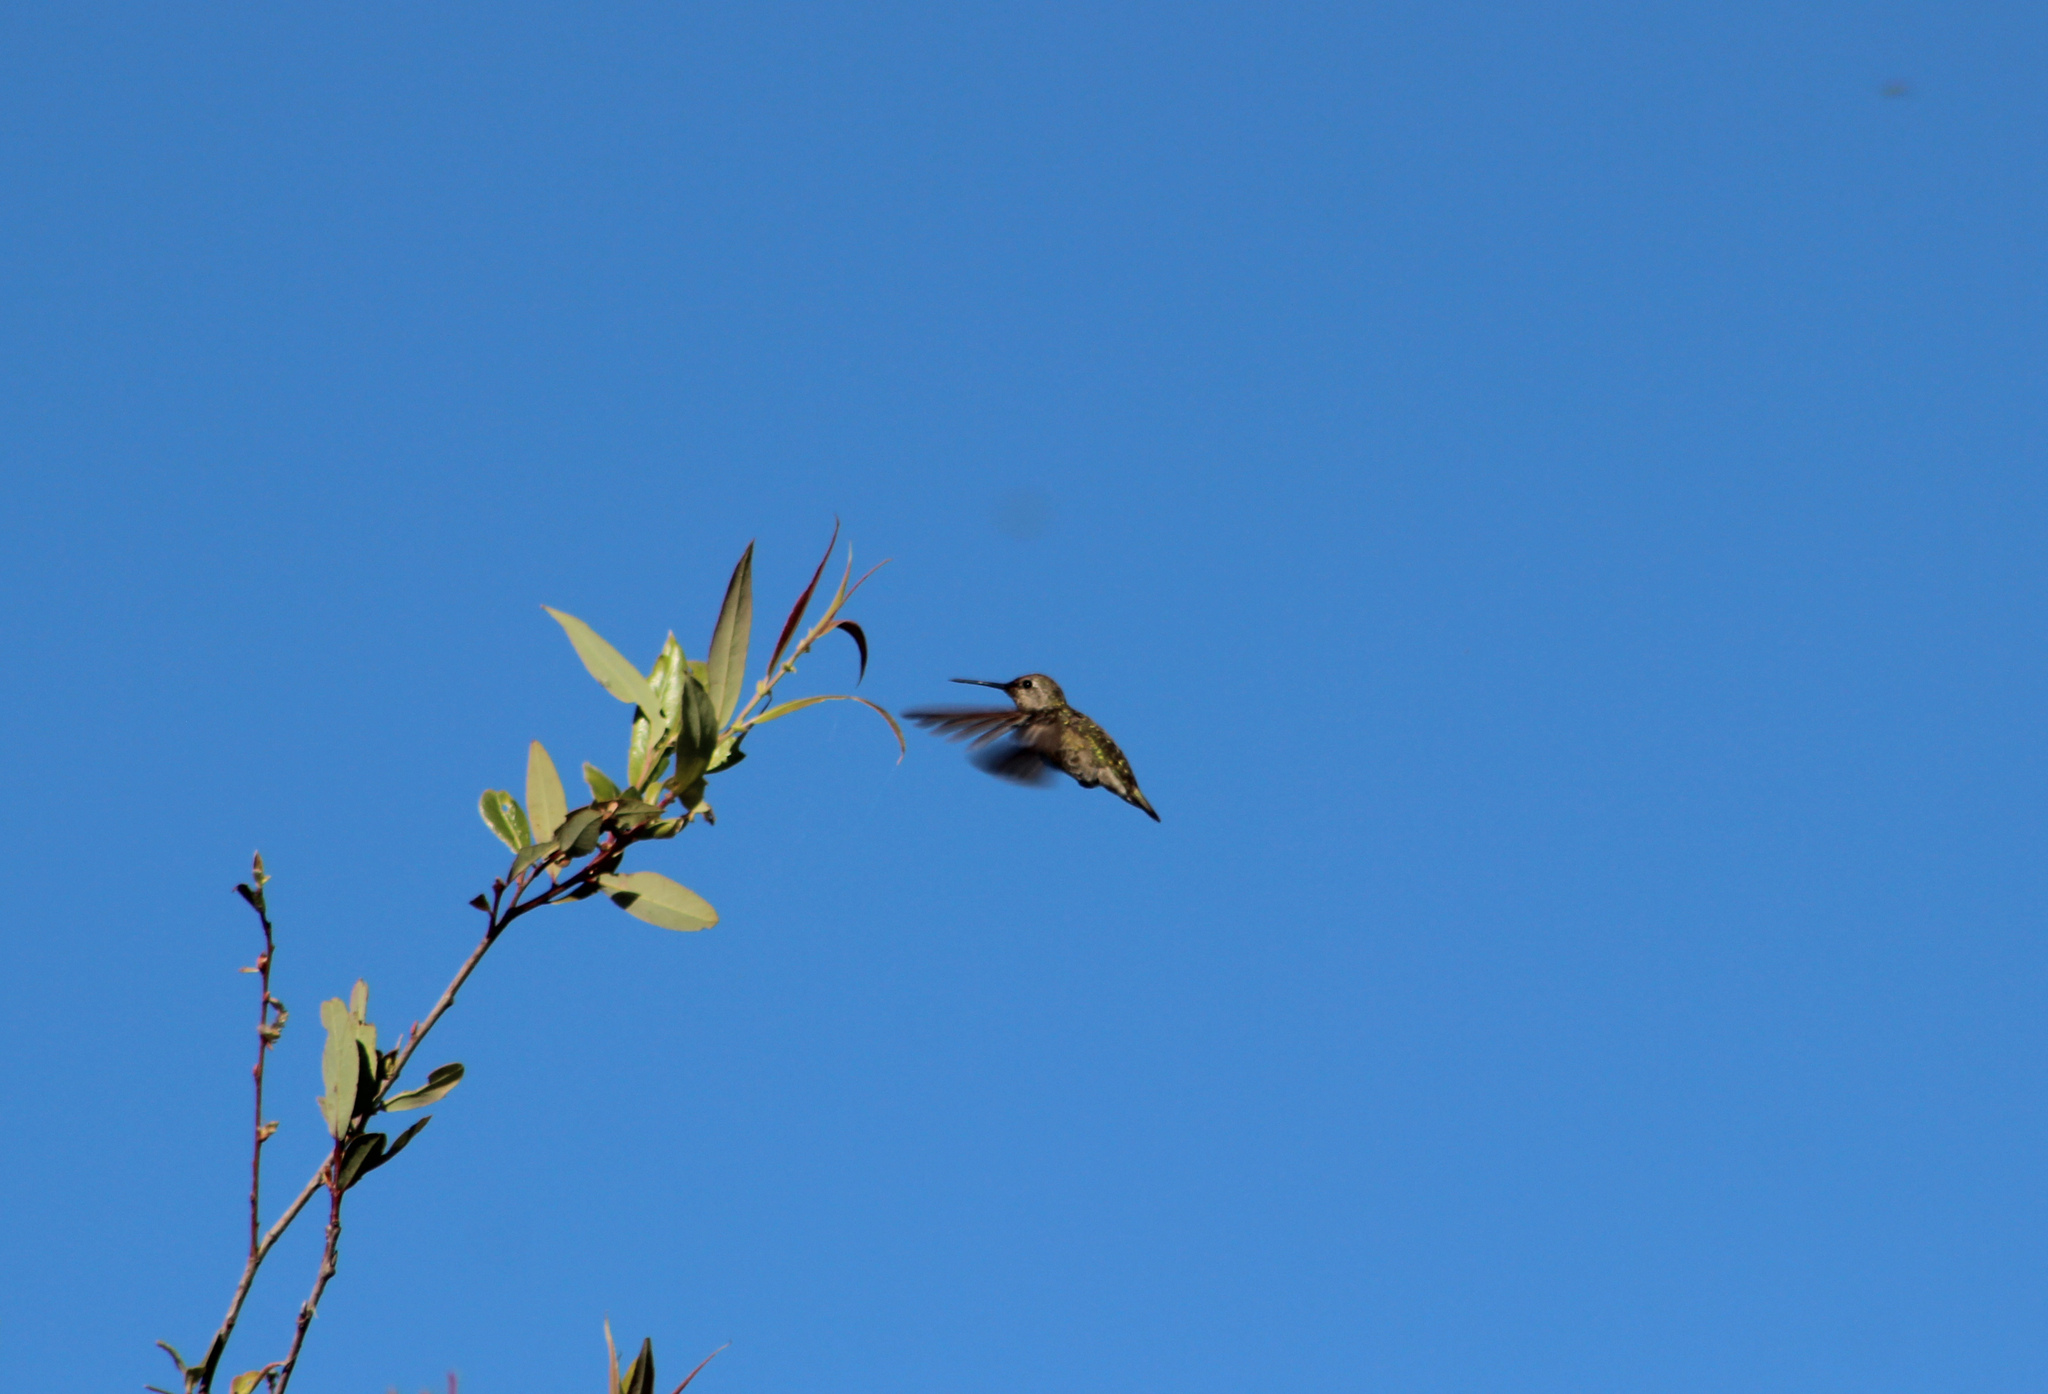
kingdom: Animalia
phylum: Chordata
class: Aves
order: Apodiformes
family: Trochilidae
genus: Calypte
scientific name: Calypte anna
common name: Anna's hummingbird
